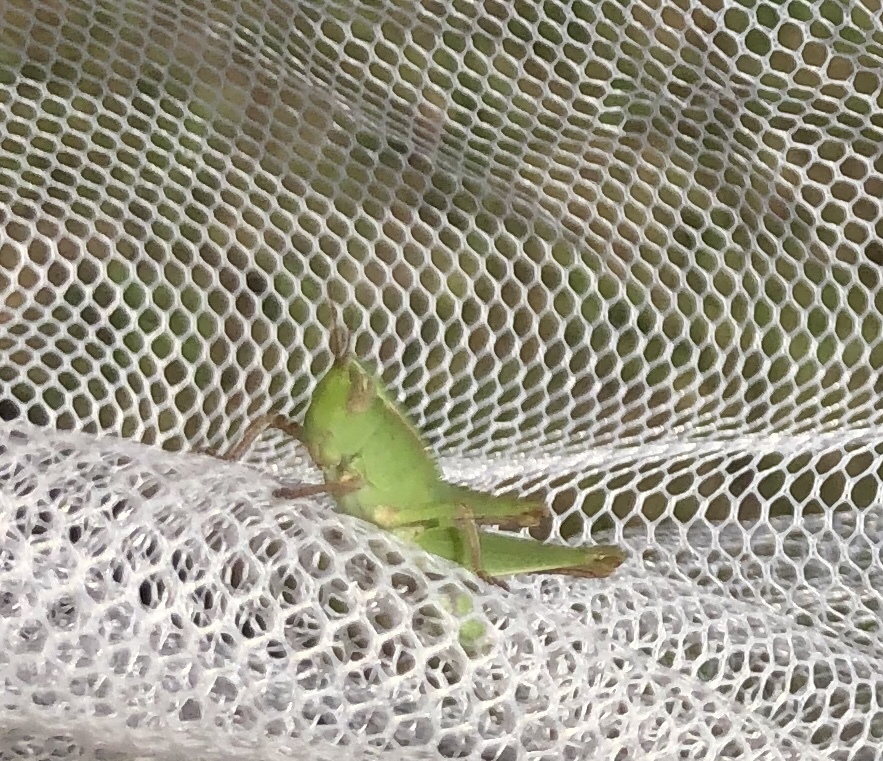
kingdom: Animalia
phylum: Arthropoda
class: Insecta
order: Orthoptera
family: Acrididae
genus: Dichromorpha
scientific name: Dichromorpha viridis
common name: Short-winged green grasshopper
